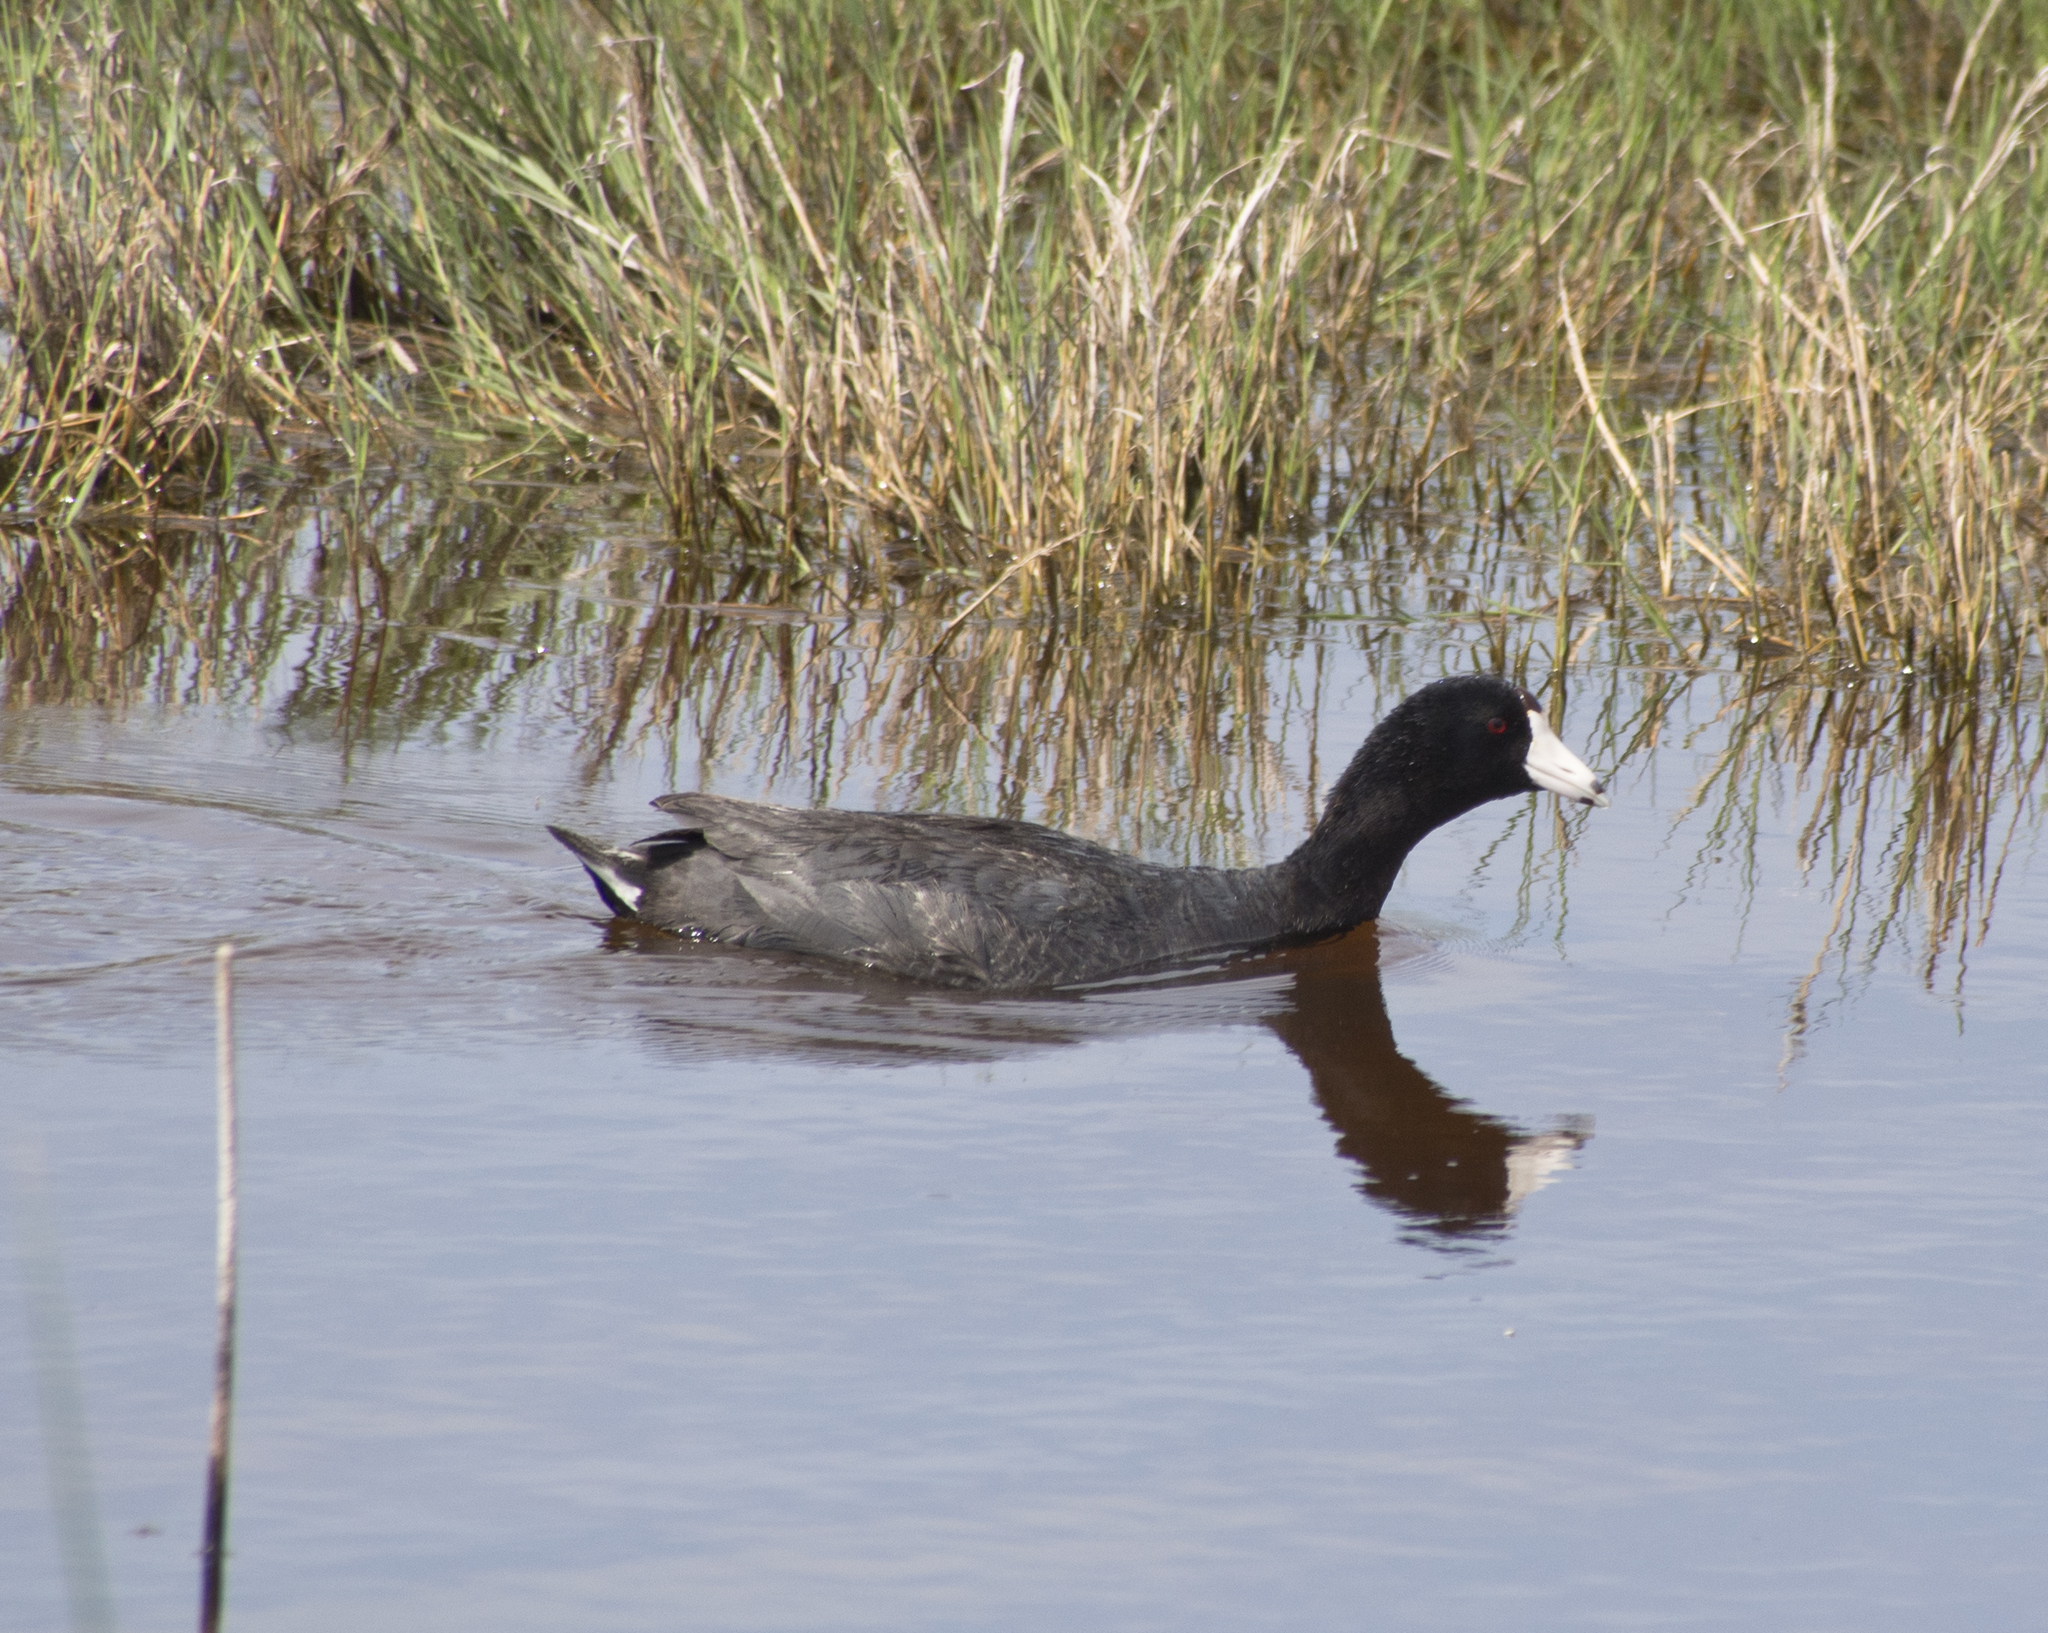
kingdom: Animalia
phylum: Chordata
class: Aves
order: Gruiformes
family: Rallidae
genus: Fulica
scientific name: Fulica americana
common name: American coot
